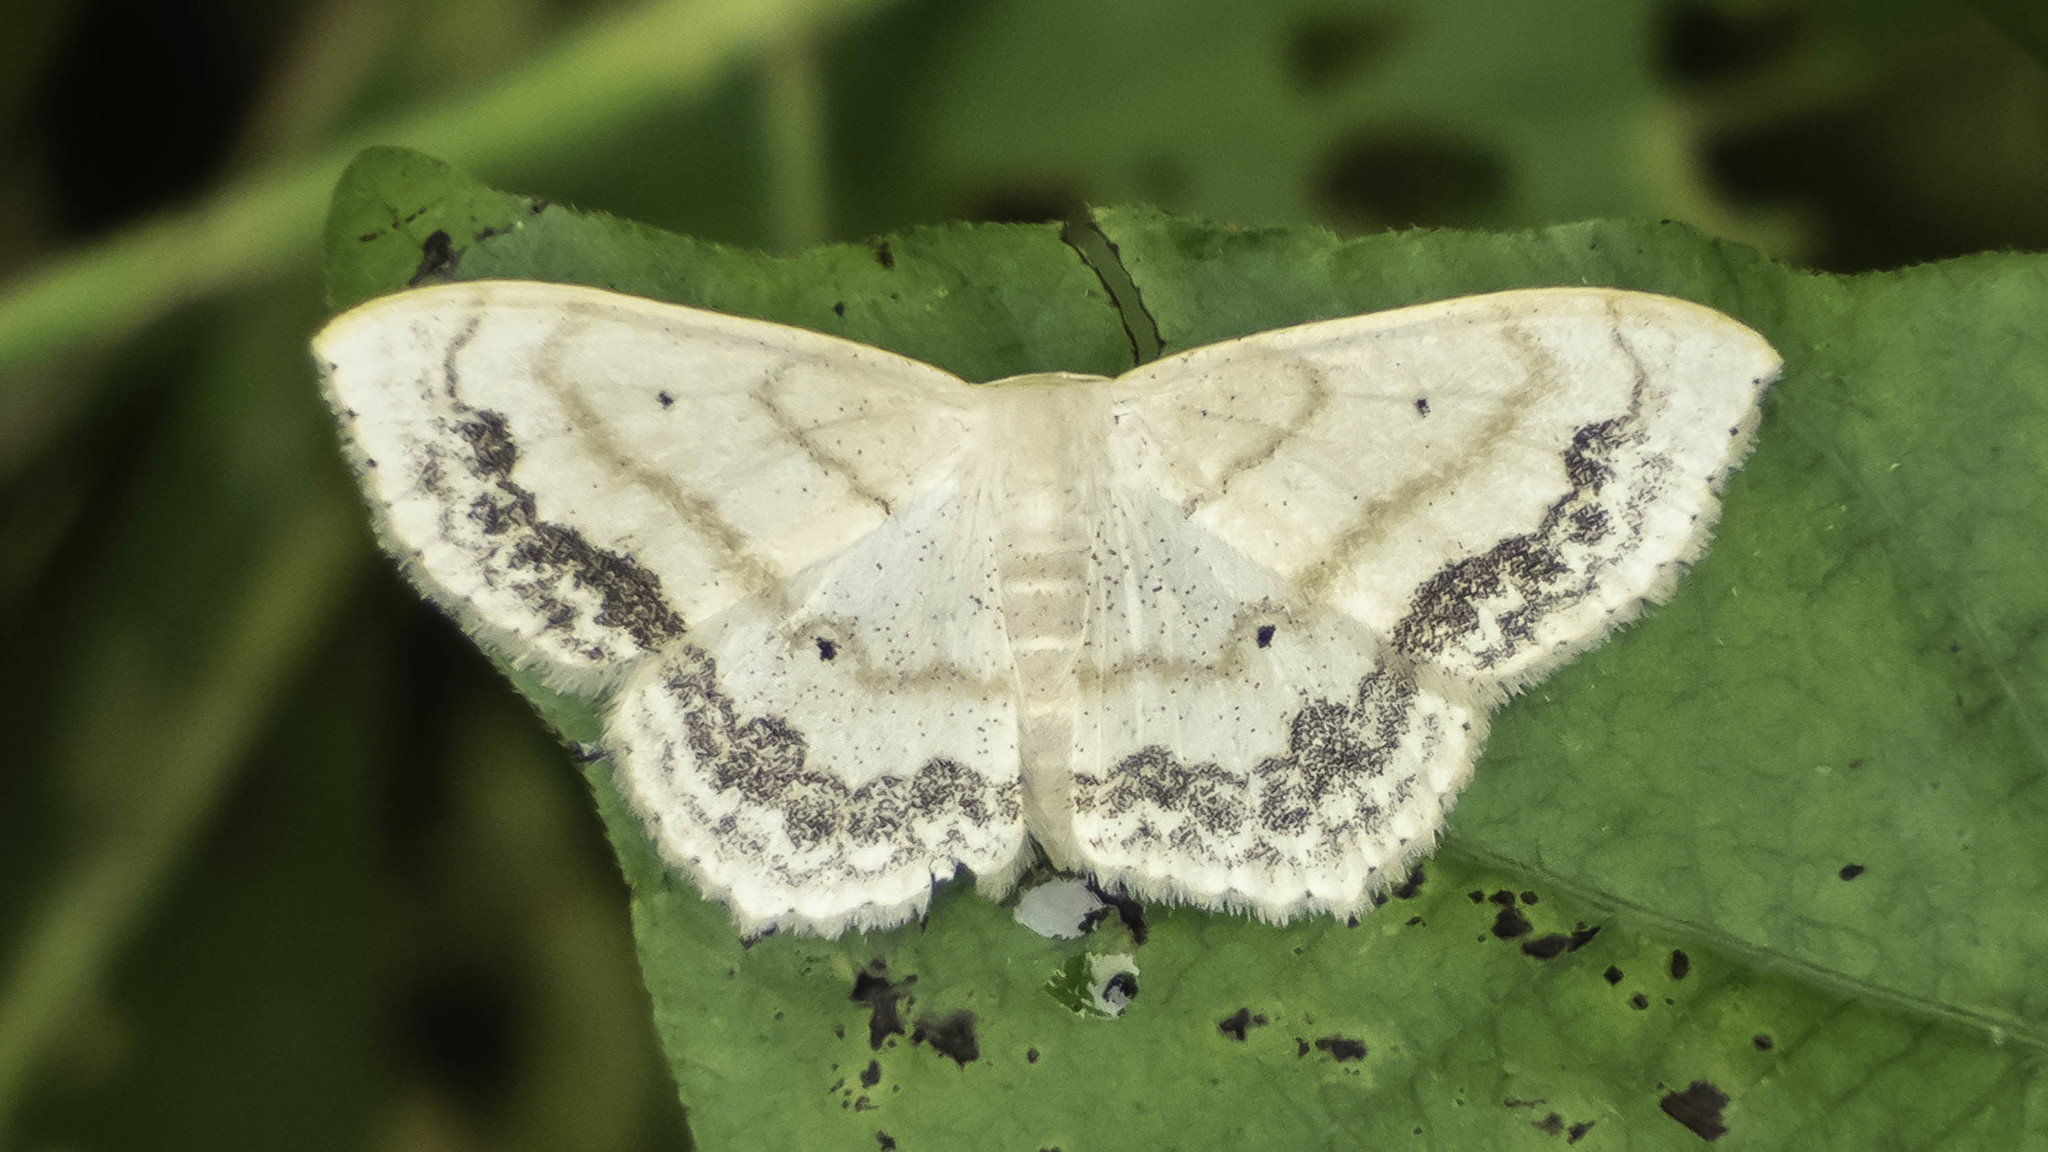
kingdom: Animalia
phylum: Arthropoda
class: Insecta
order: Lepidoptera
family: Geometridae
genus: Scopula
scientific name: Scopula limboundata
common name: Large lace border
